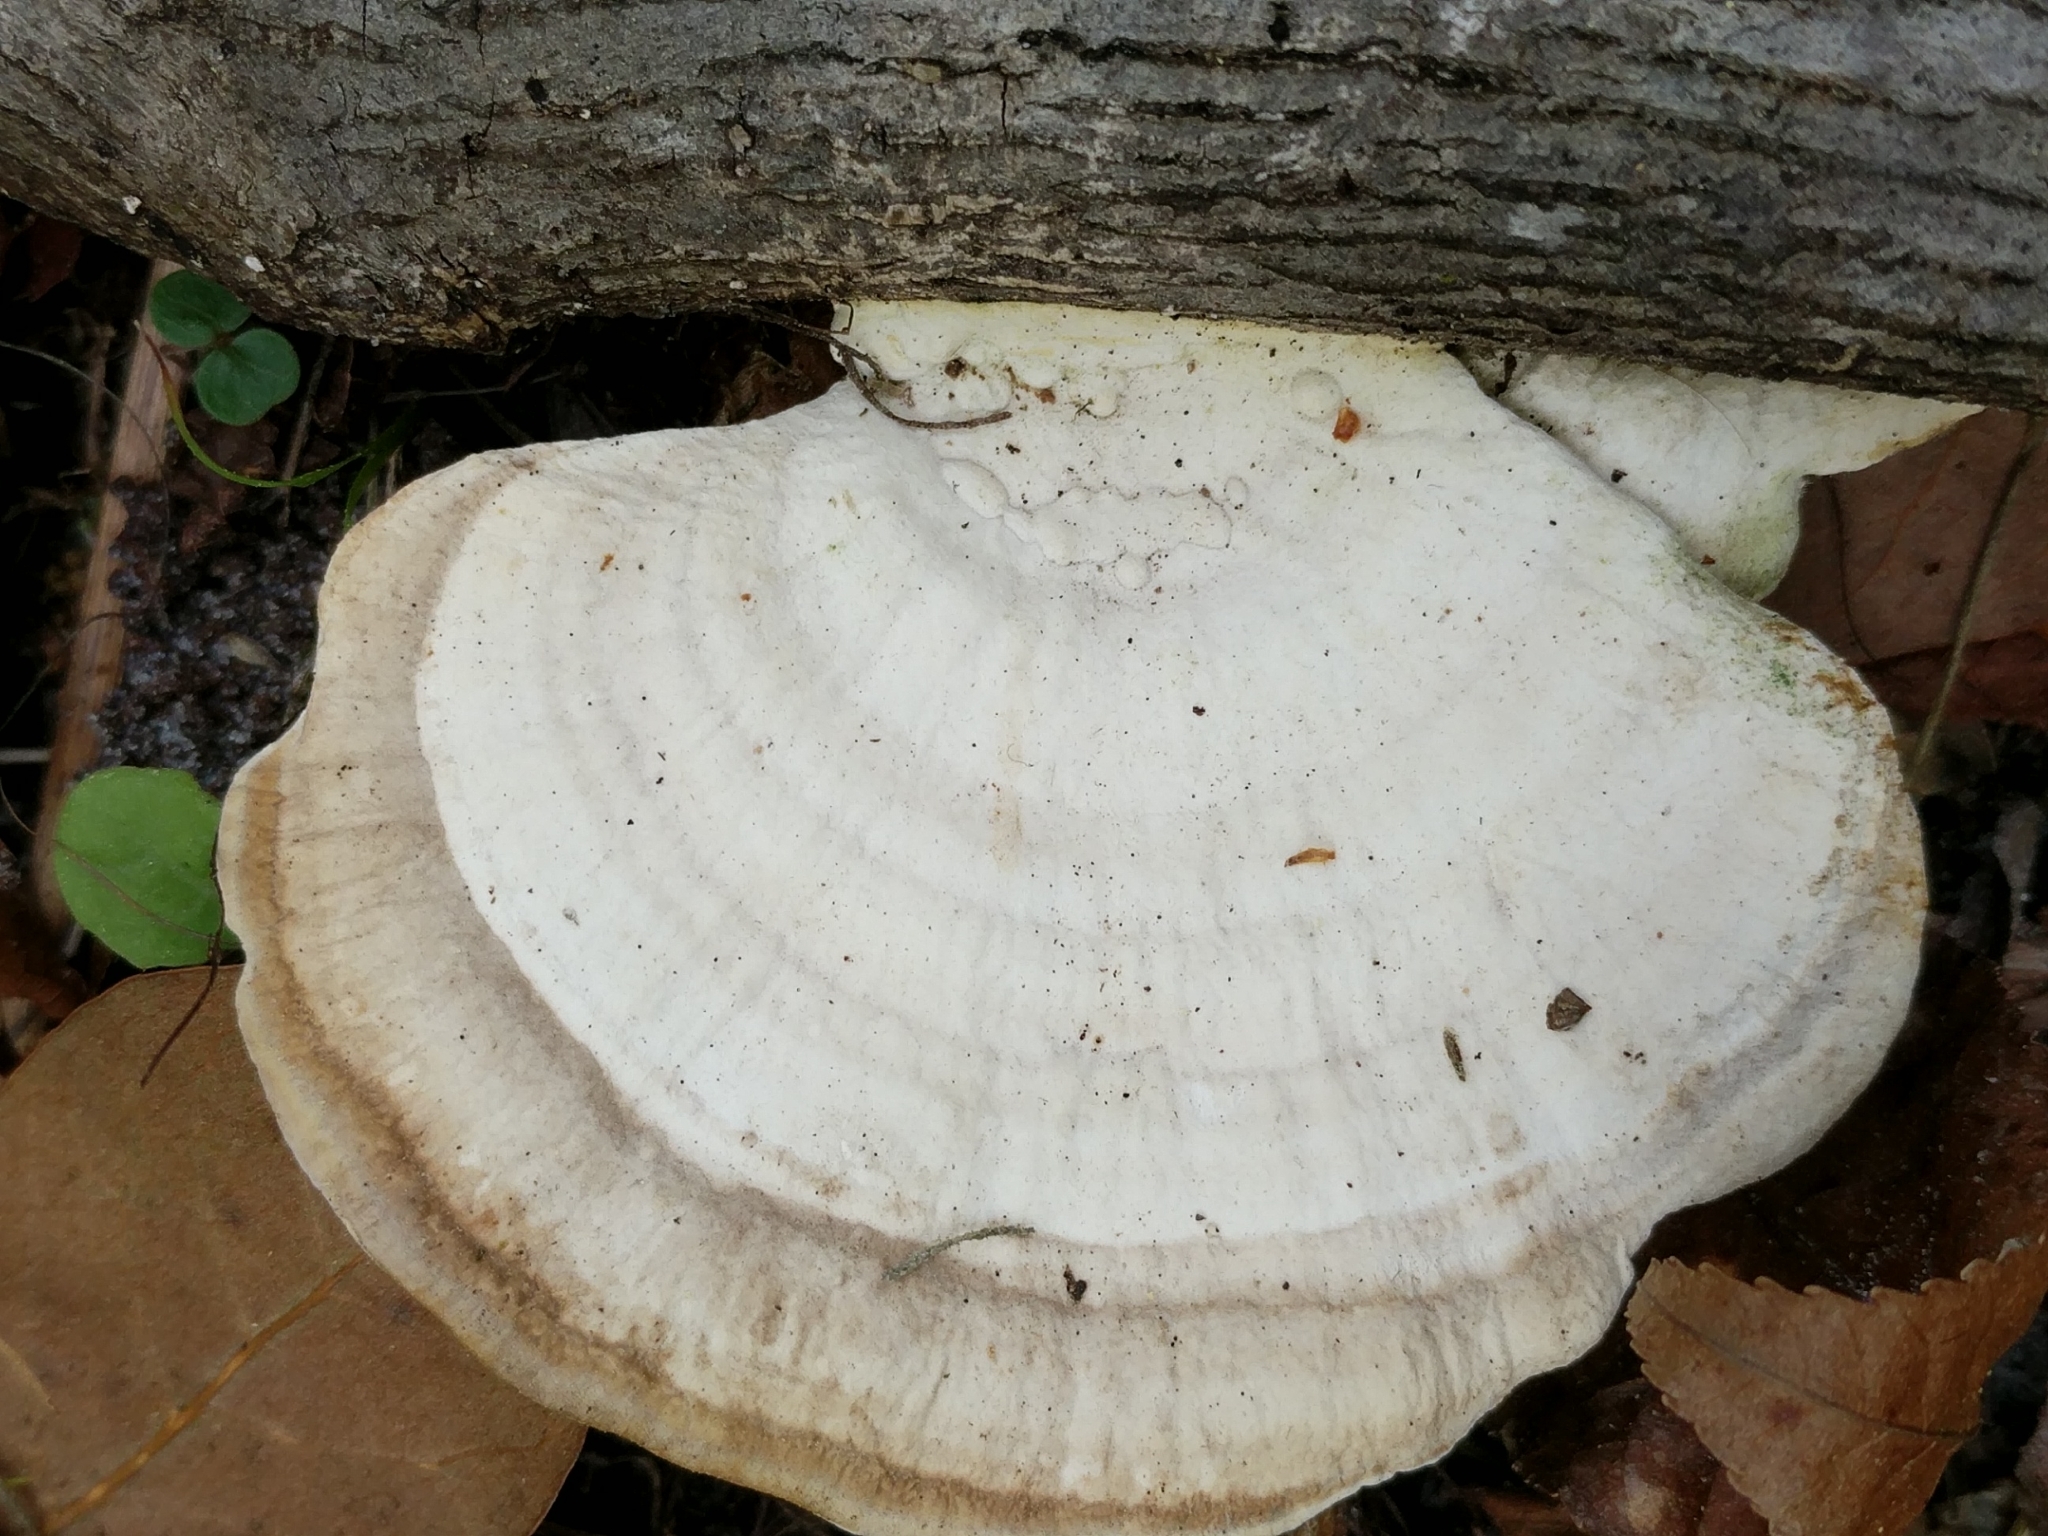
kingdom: Fungi
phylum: Basidiomycota
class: Agaricomycetes
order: Polyporales
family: Polyporaceae
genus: Trametes
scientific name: Trametes lactinea
